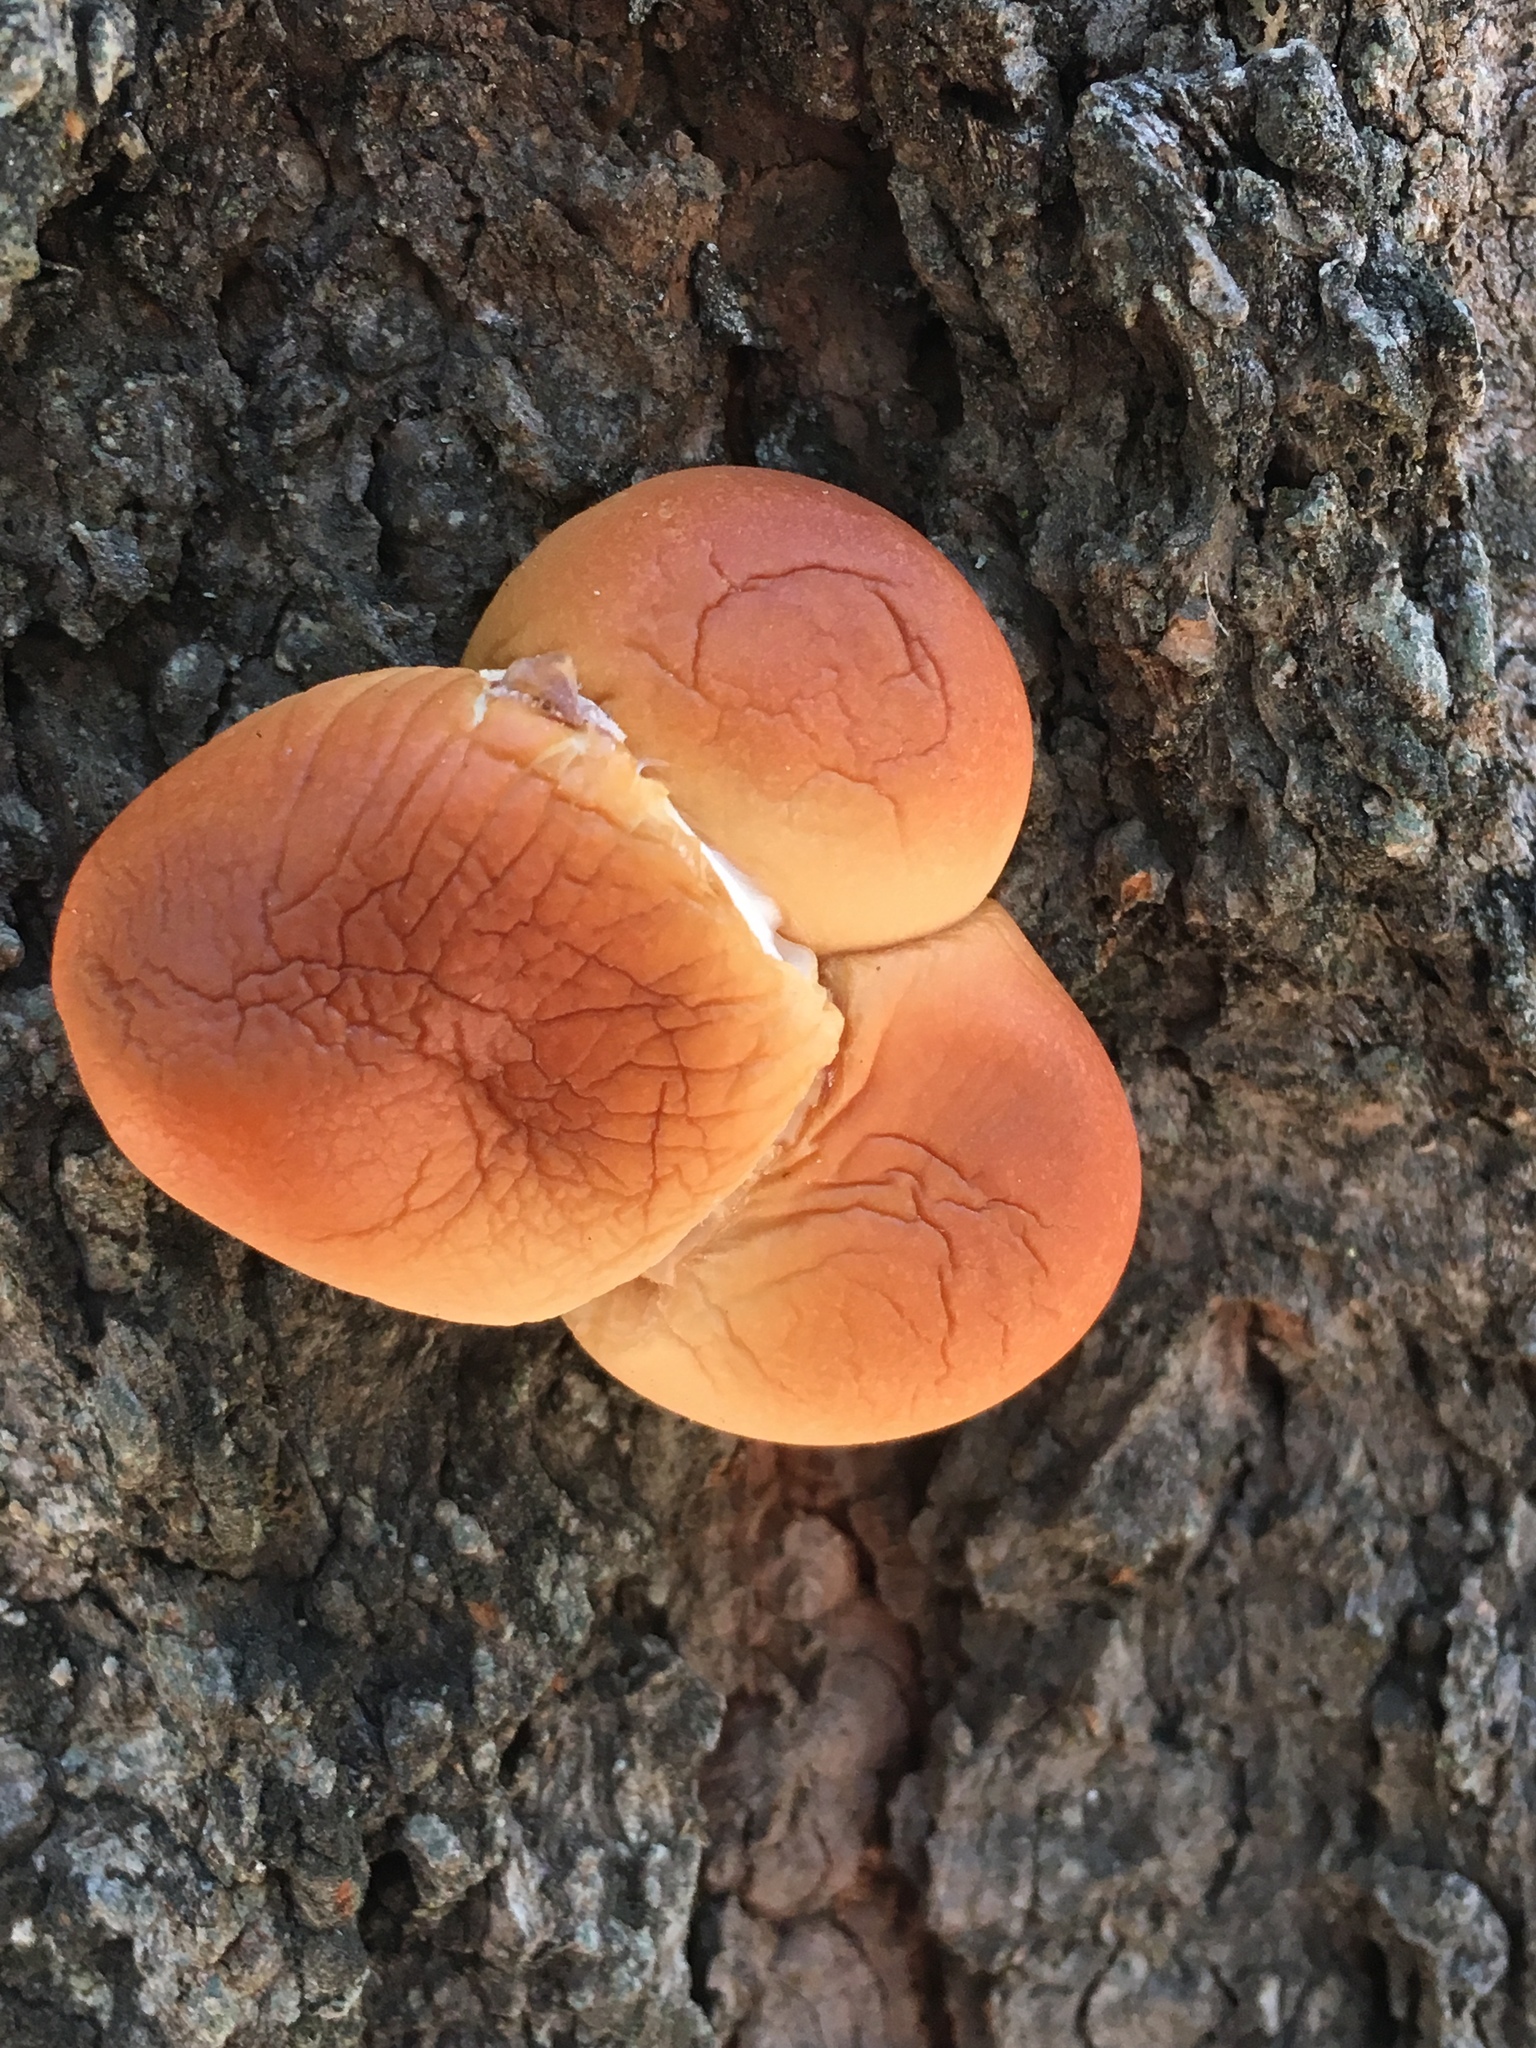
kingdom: Fungi
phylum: Basidiomycota
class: Agaricomycetes
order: Polyporales
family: Polyporaceae
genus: Cryptoporus
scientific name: Cryptoporus volvatus
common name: Veiled polypore
